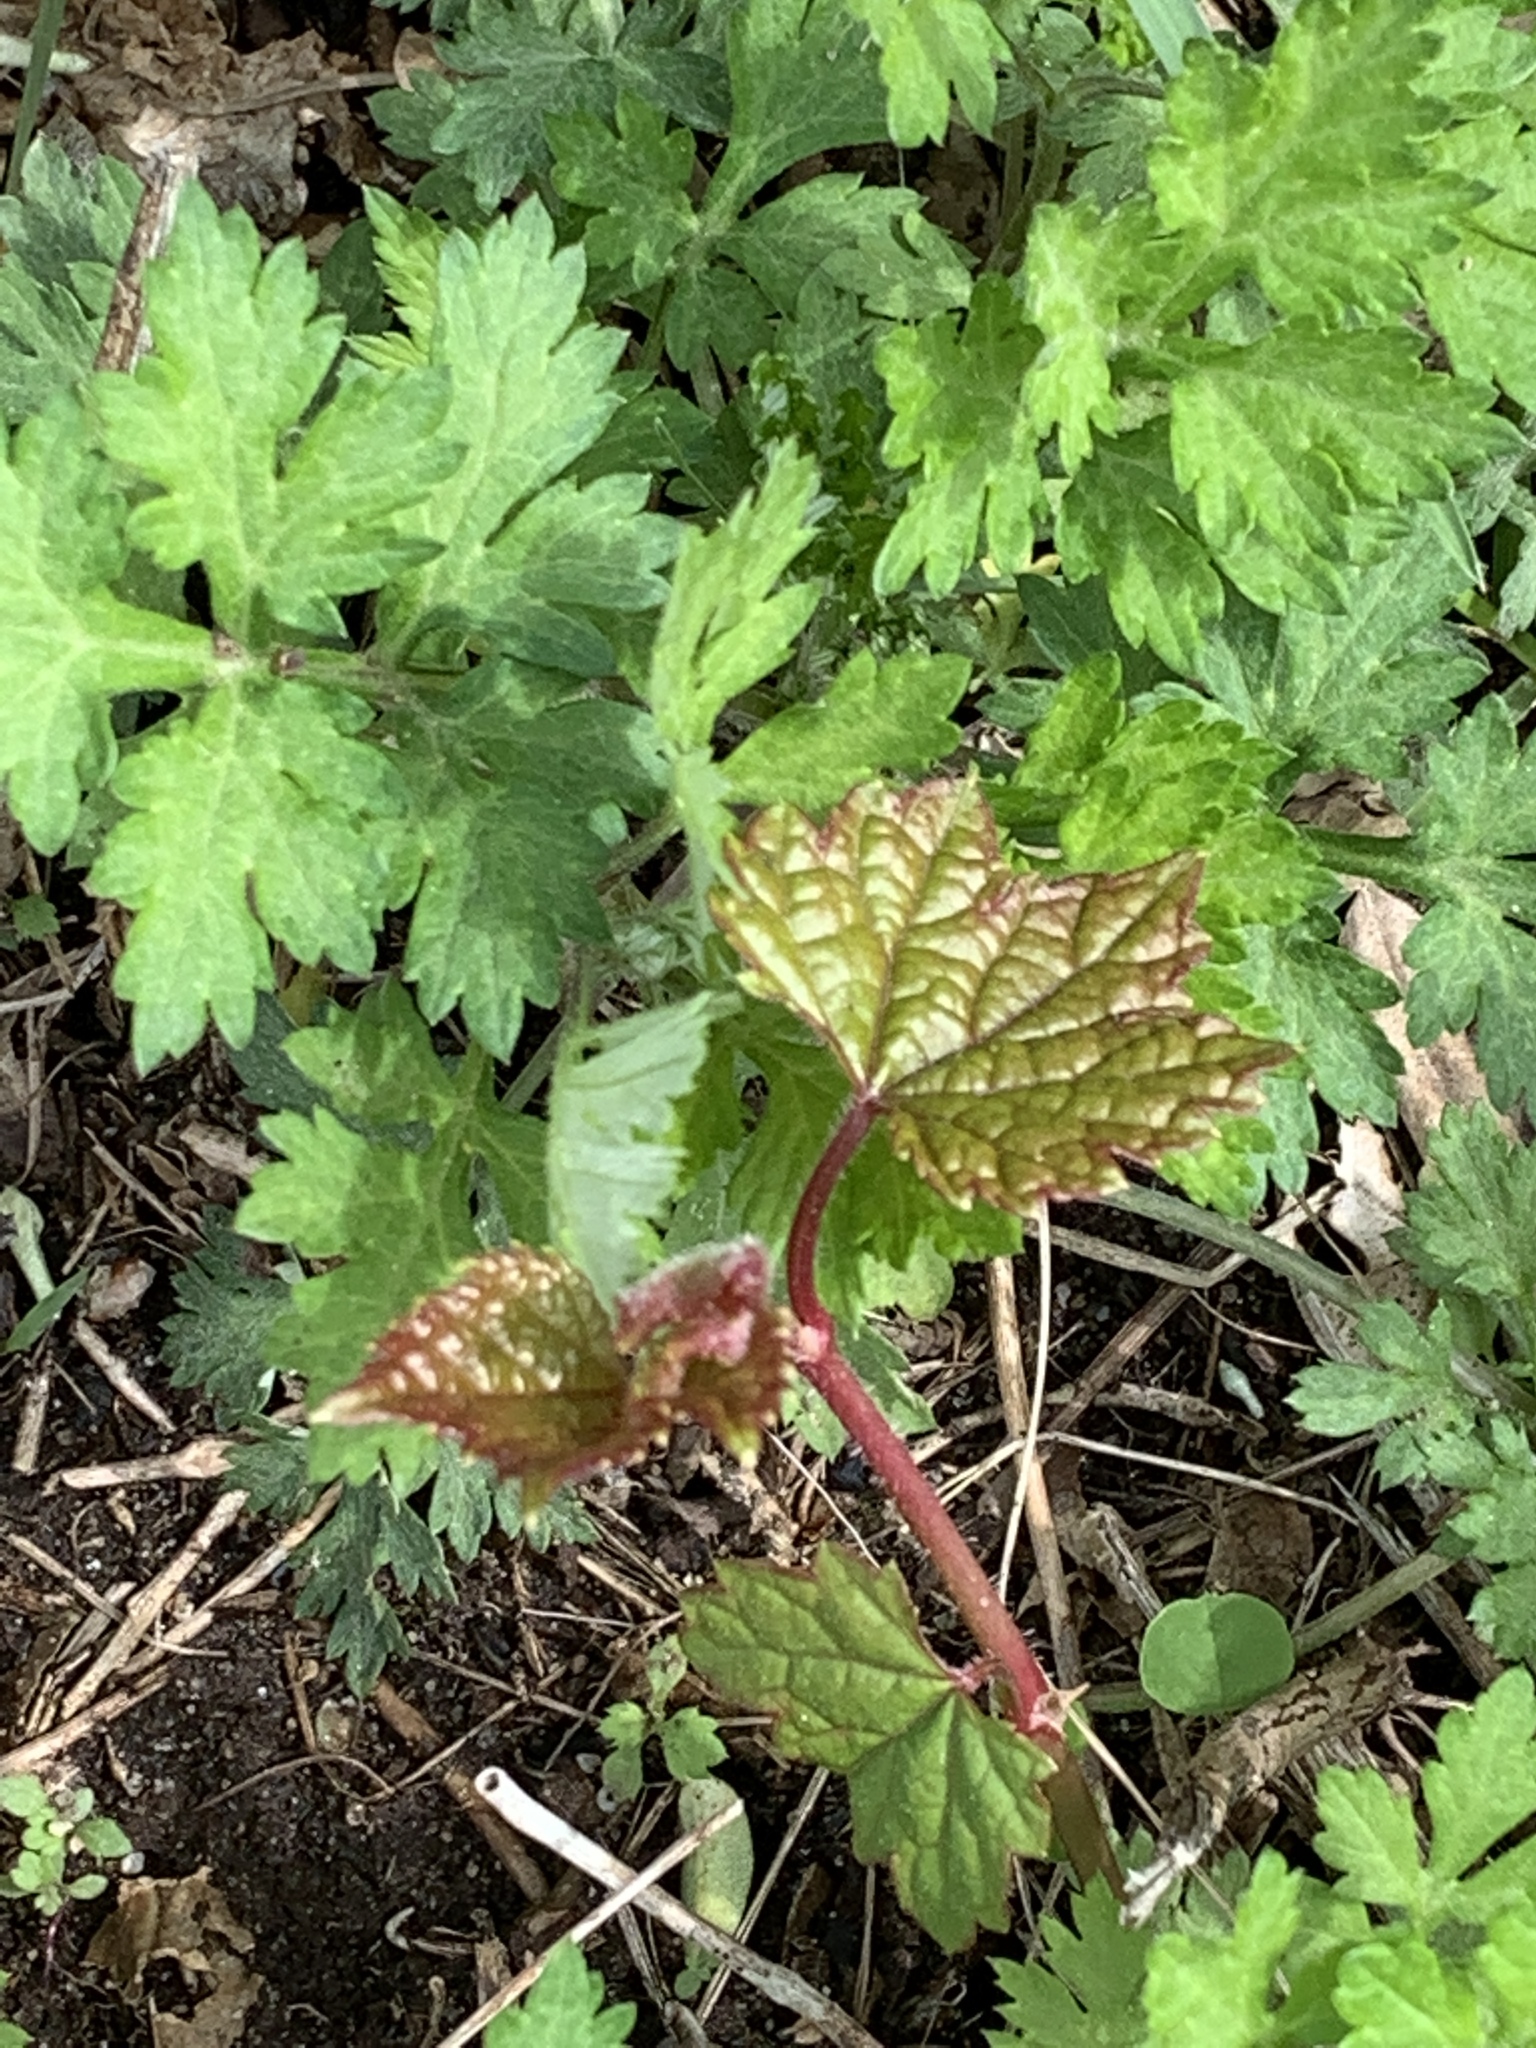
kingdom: Plantae
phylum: Tracheophyta
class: Magnoliopsida
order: Vitales
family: Vitaceae
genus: Ampelopsis
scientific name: Ampelopsis glandulosa
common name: Amur peppervine
